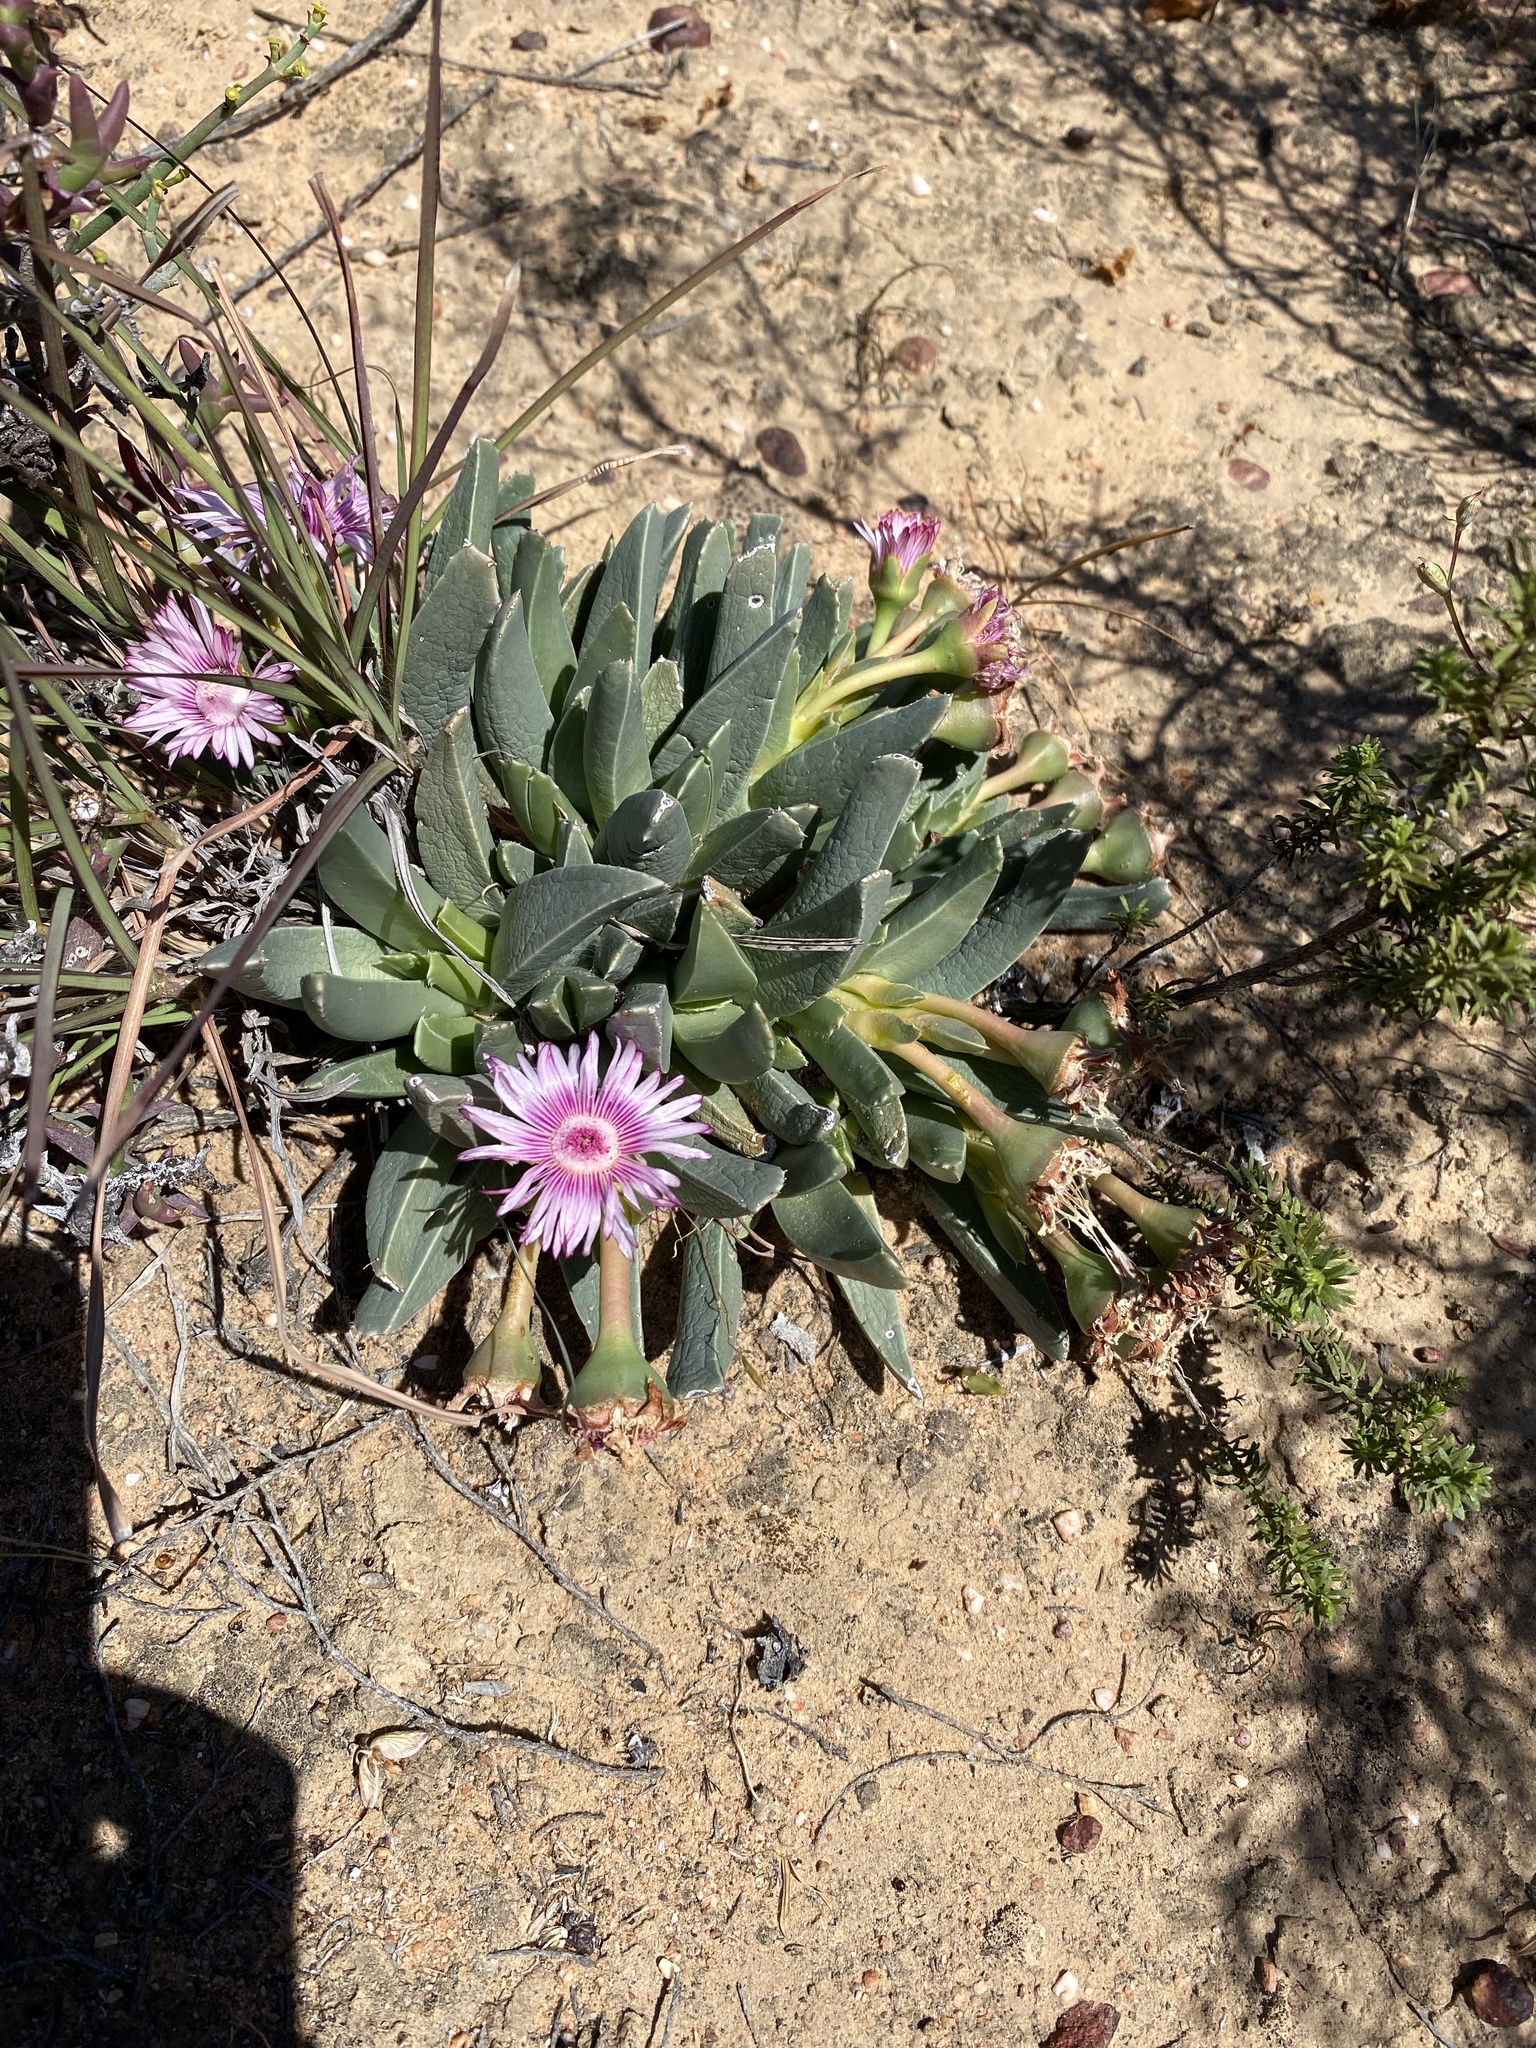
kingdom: Plantae
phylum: Tracheophyta
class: Magnoliopsida
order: Caryophyllales
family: Aizoaceae
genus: Acrodon
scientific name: Acrodon bellidiflorus
